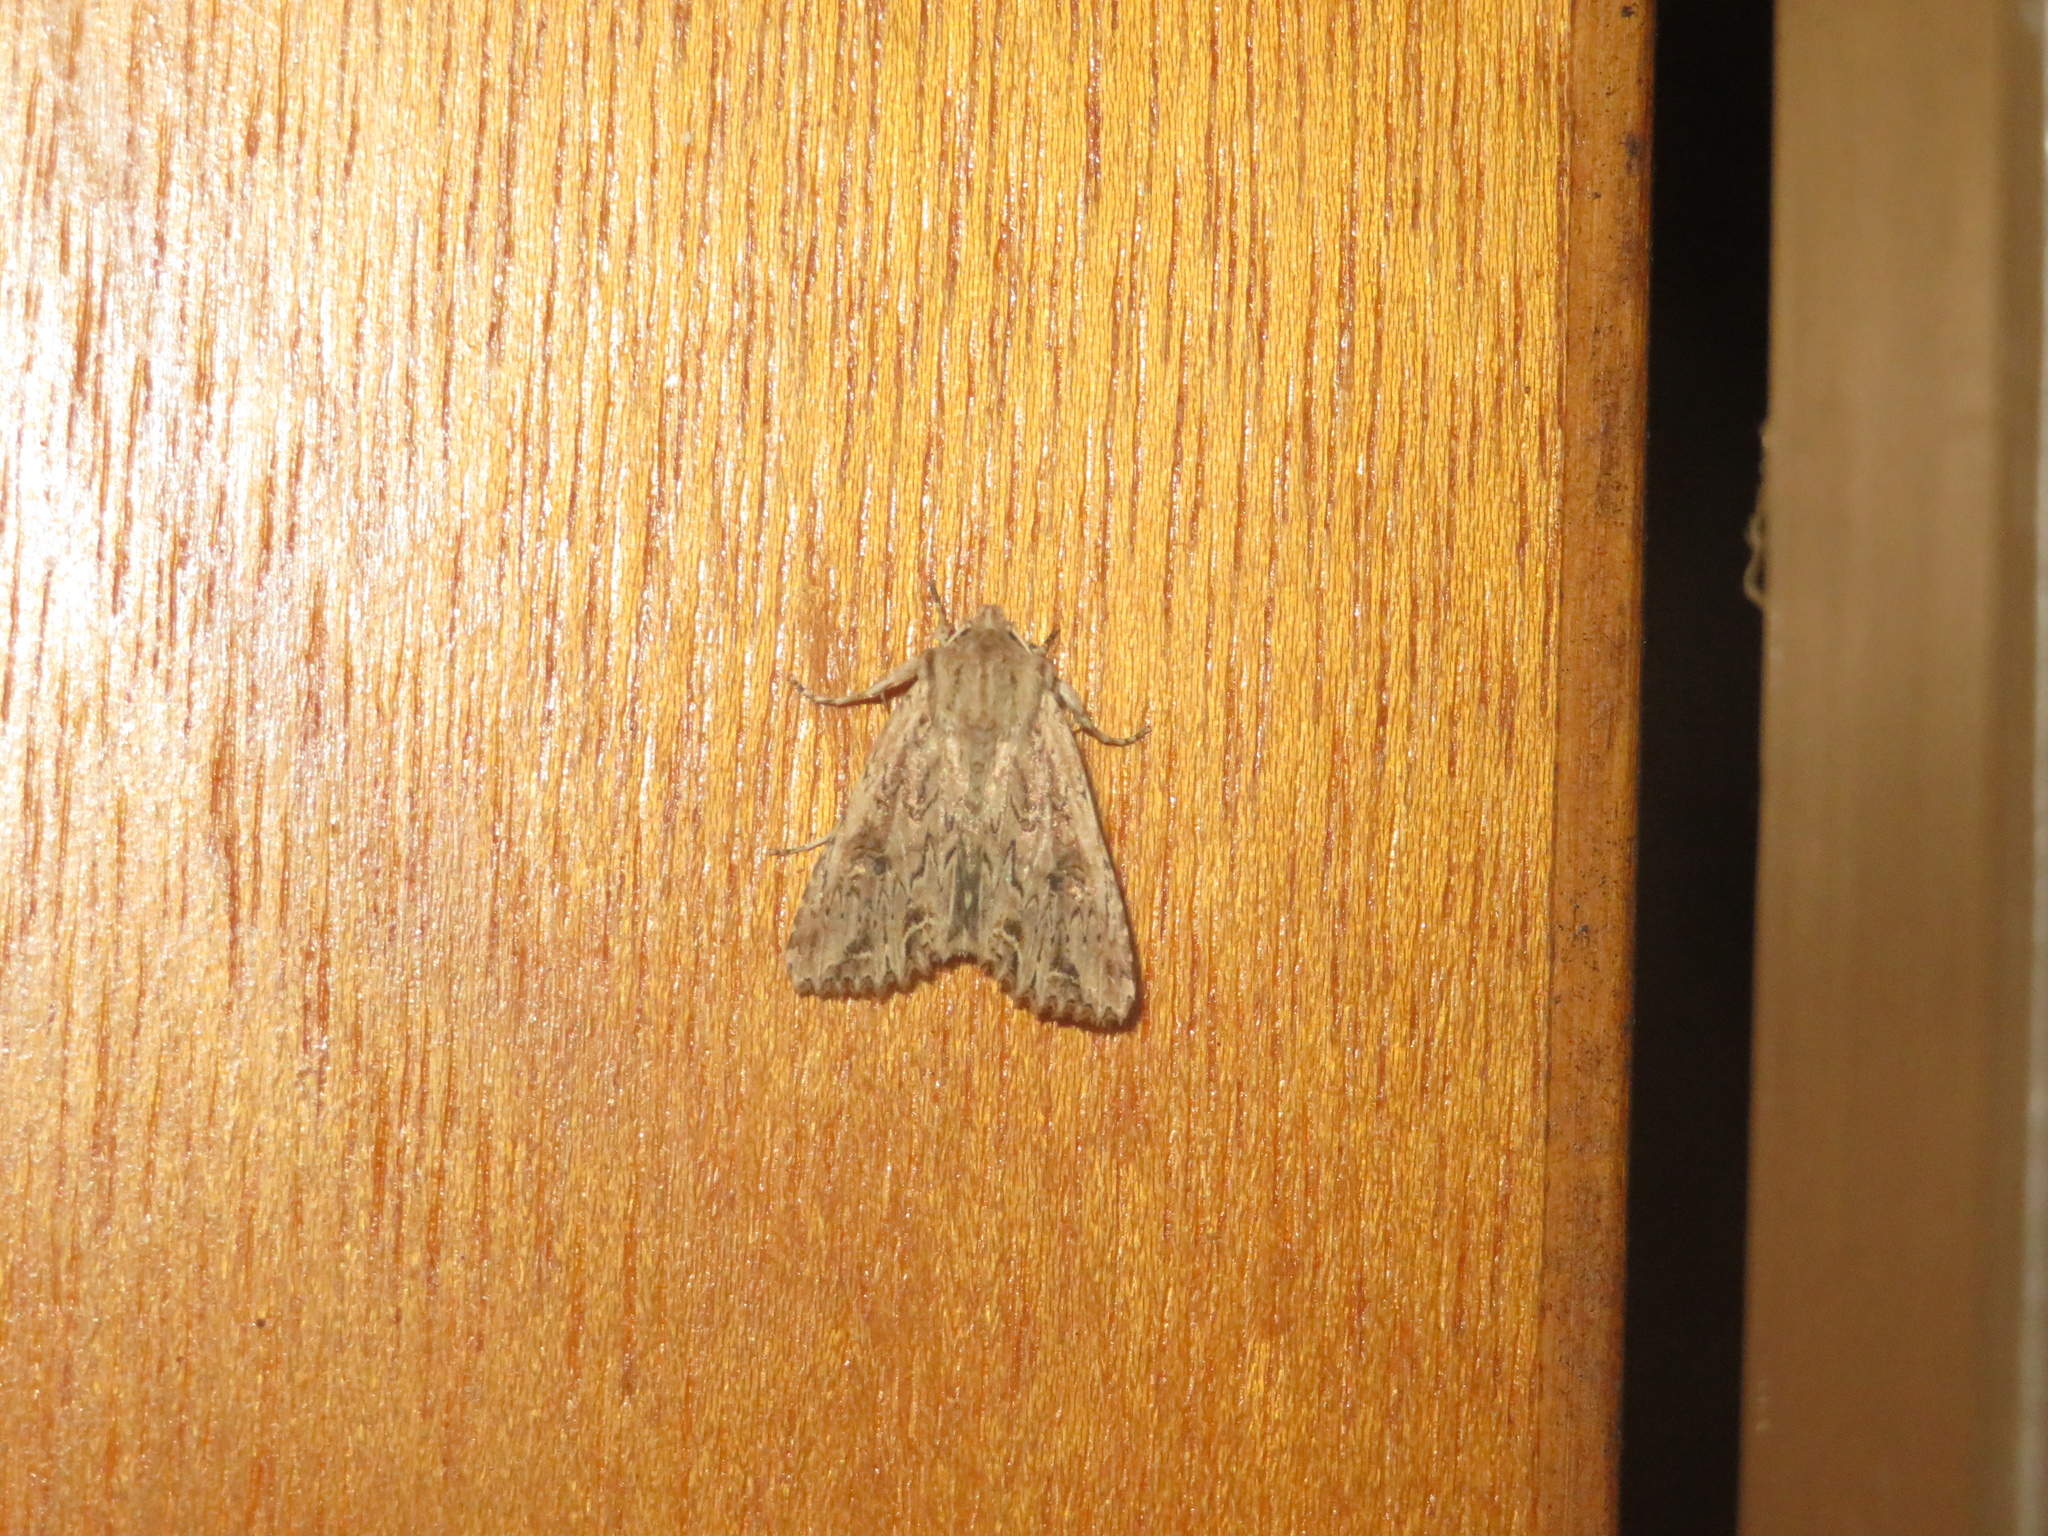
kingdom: Animalia
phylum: Arthropoda
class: Insecta
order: Lepidoptera
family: Noctuidae
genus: Ichneutica
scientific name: Ichneutica lignana
